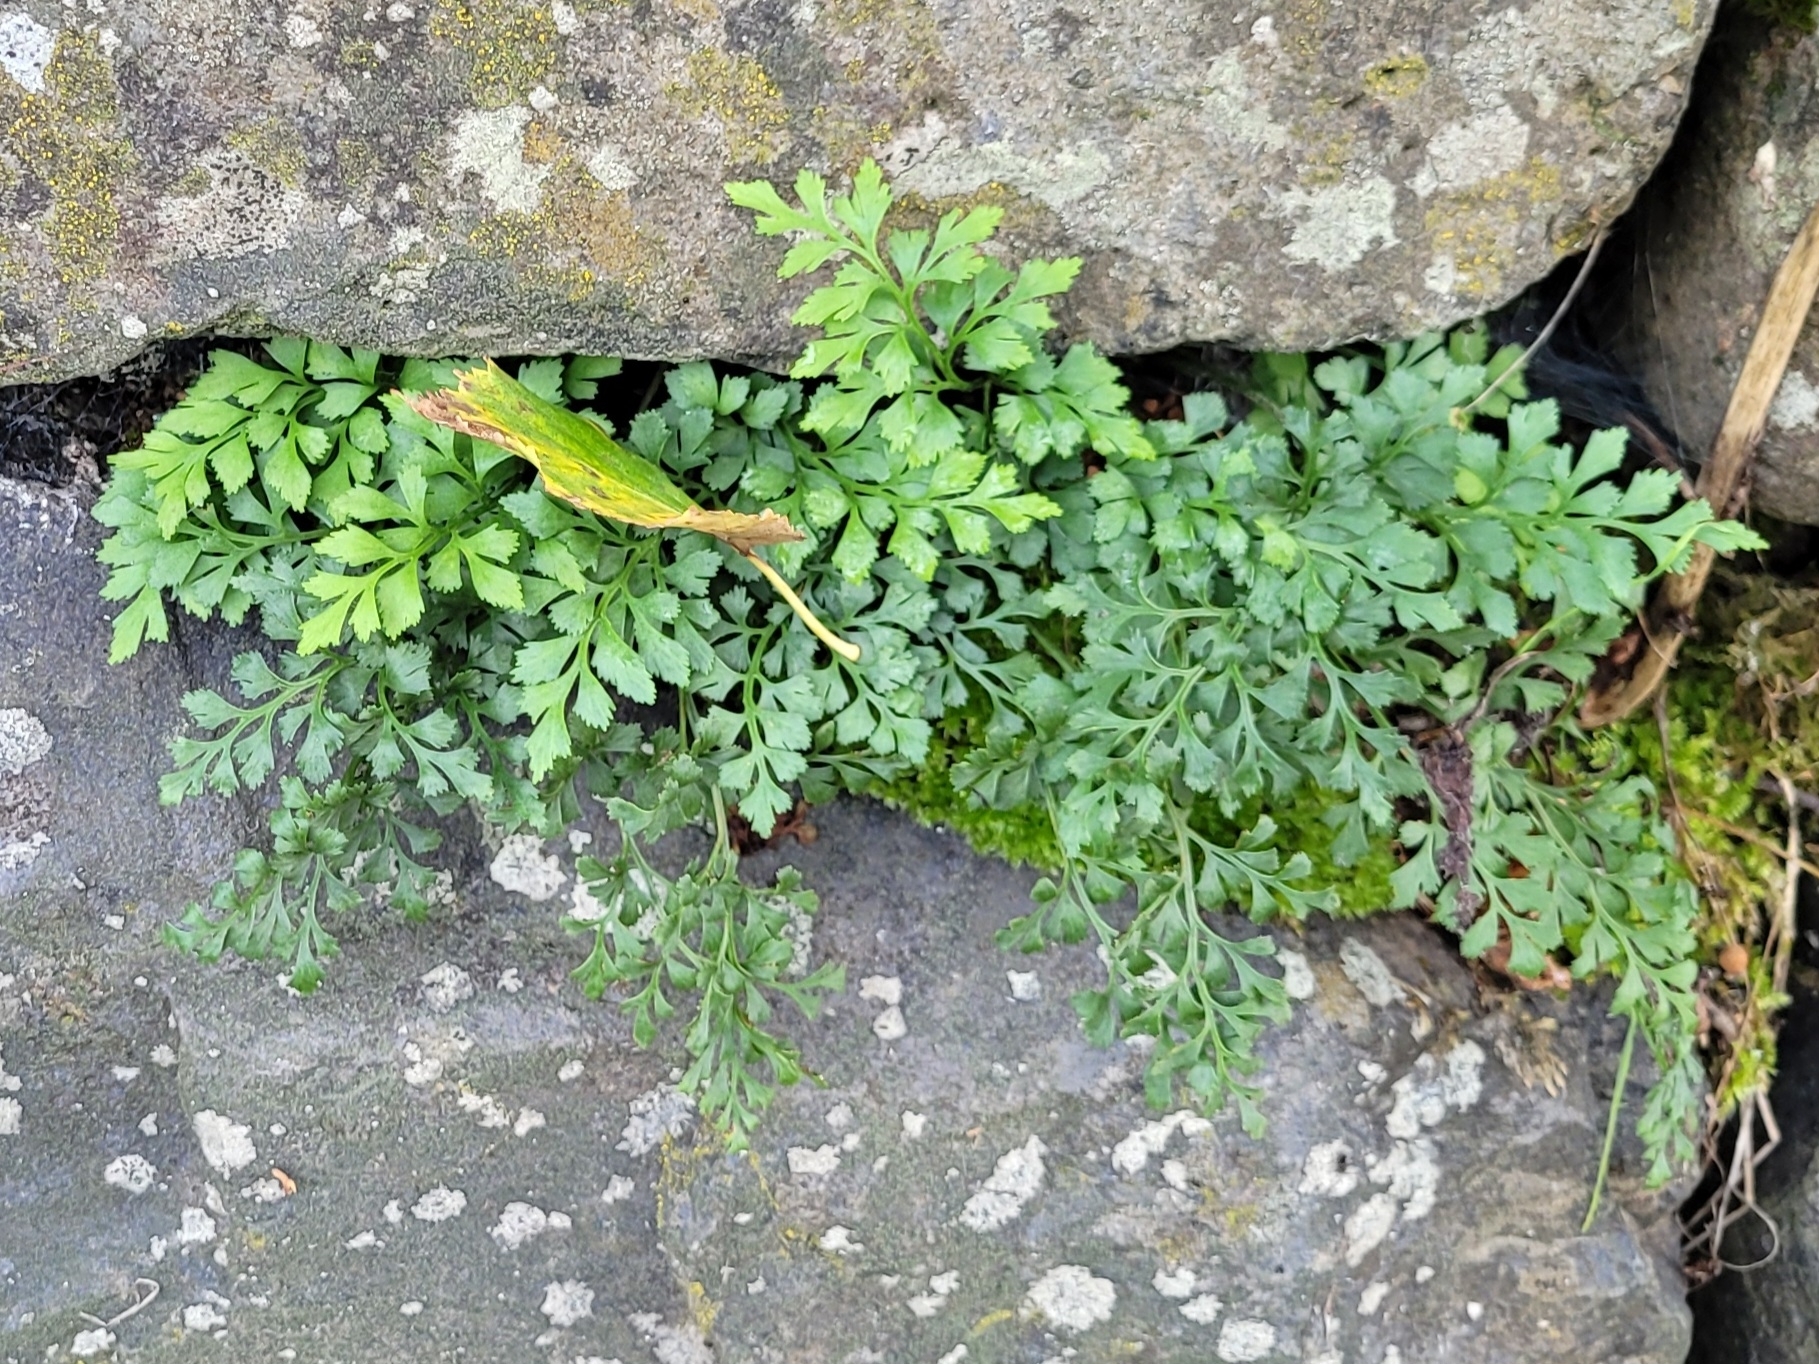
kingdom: Plantae
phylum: Tracheophyta
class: Polypodiopsida
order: Polypodiales
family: Aspleniaceae
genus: Asplenium
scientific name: Asplenium ruta-muraria
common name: Wall-rue
